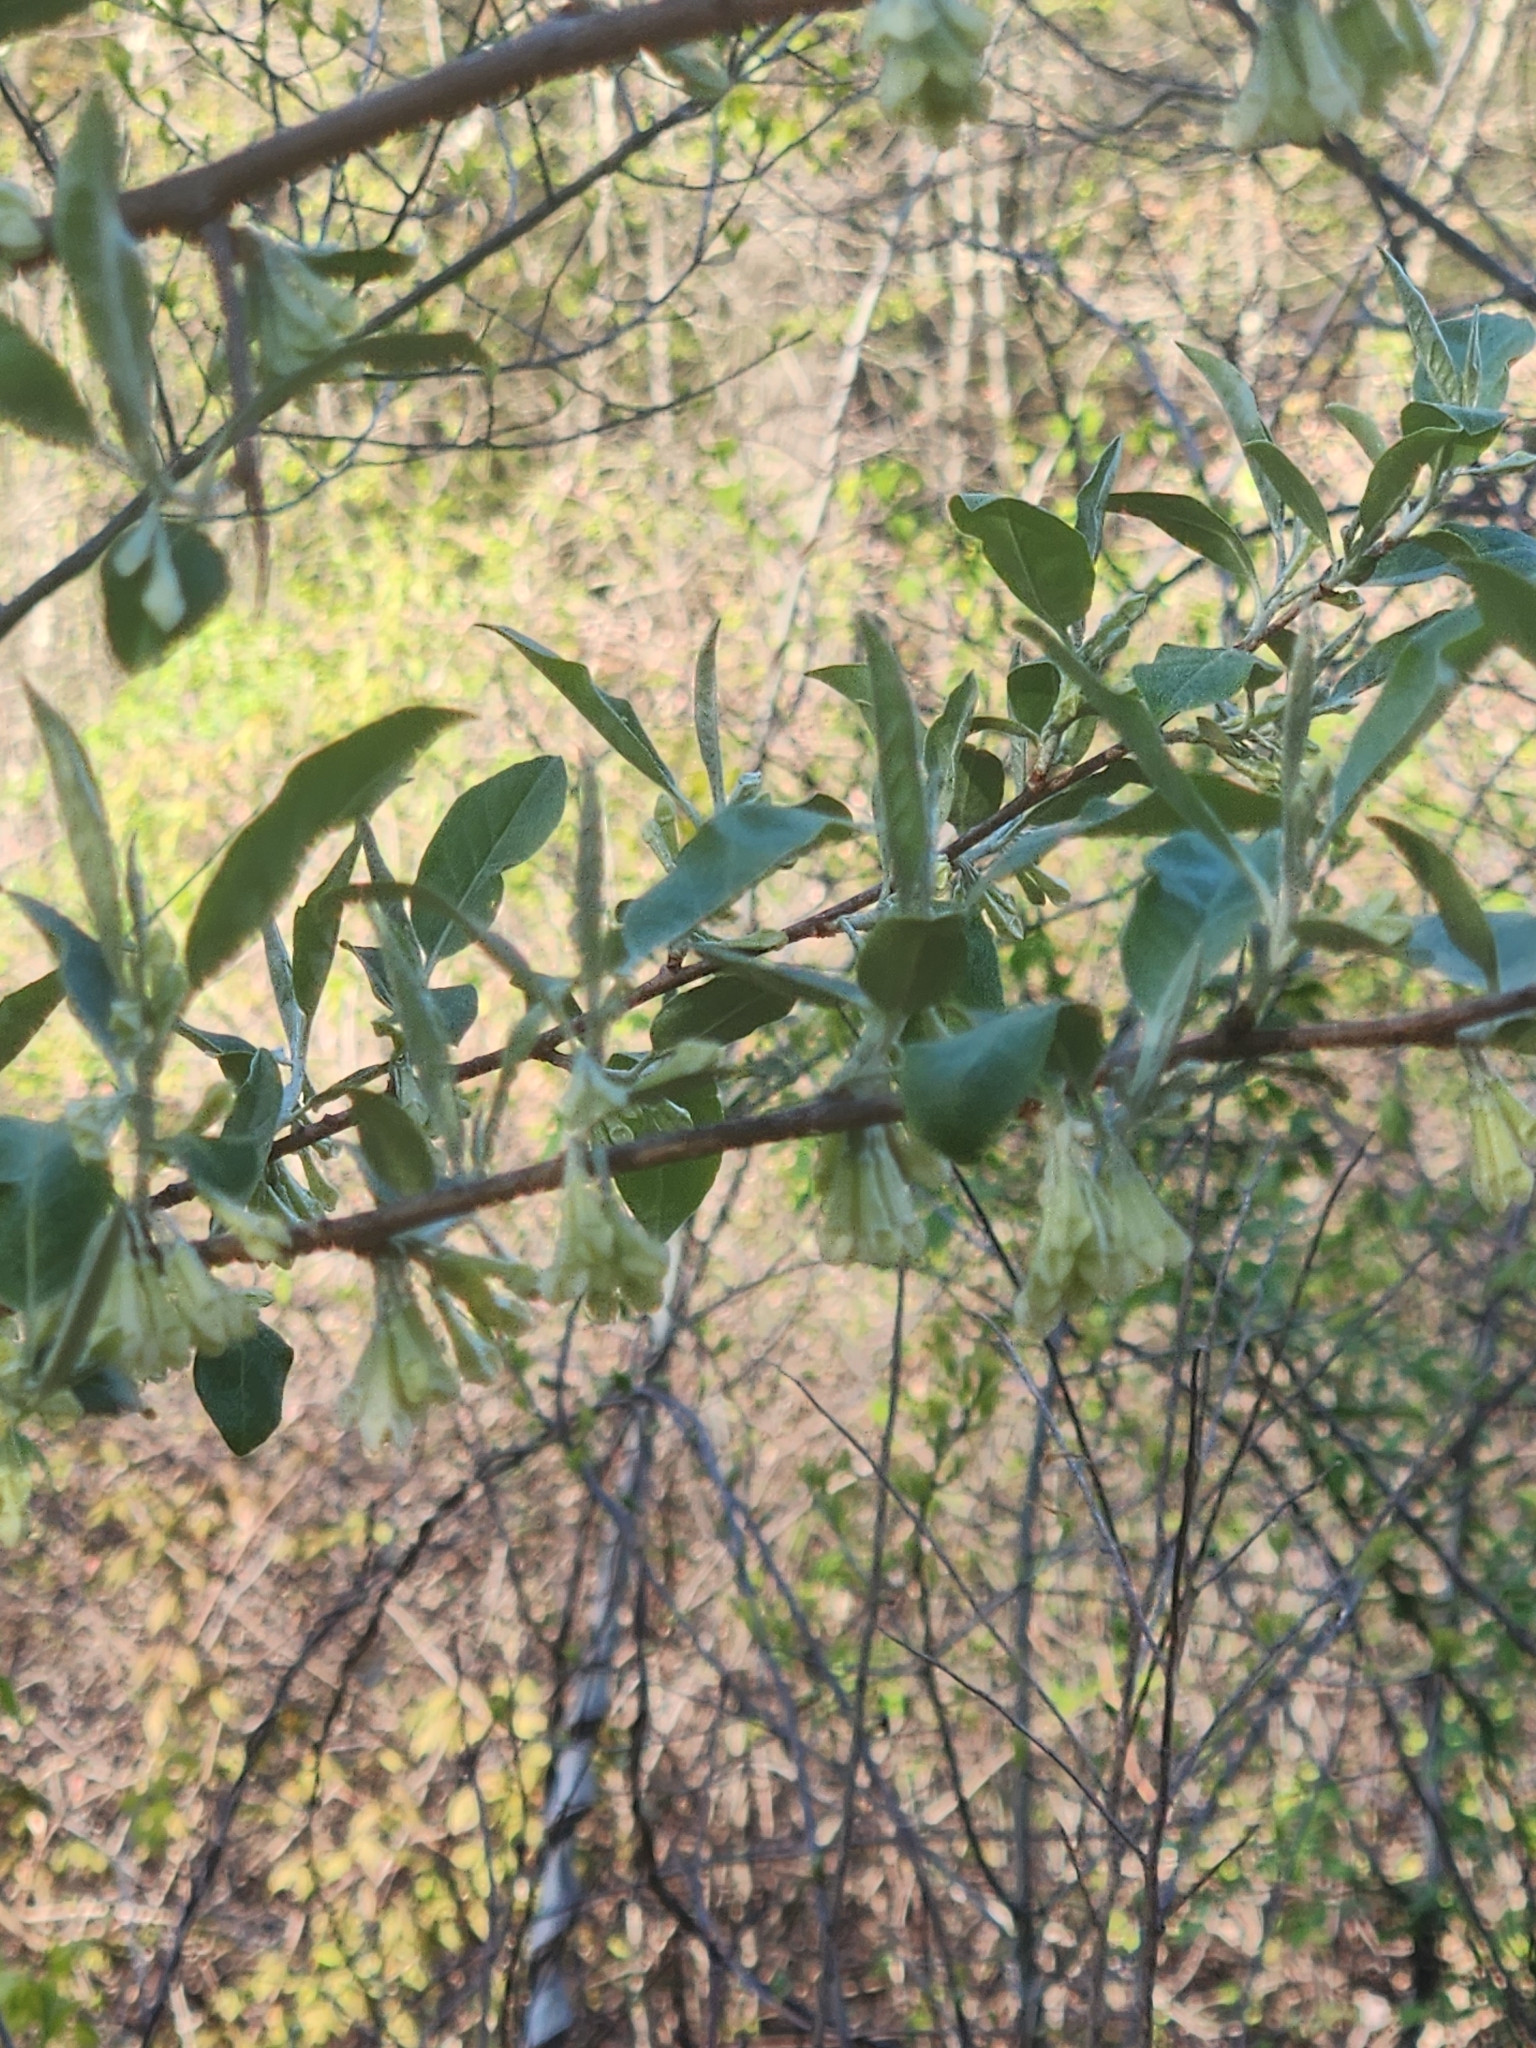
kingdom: Plantae
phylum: Tracheophyta
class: Magnoliopsida
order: Rosales
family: Elaeagnaceae
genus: Elaeagnus
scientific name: Elaeagnus umbellata
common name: Autumn olive
